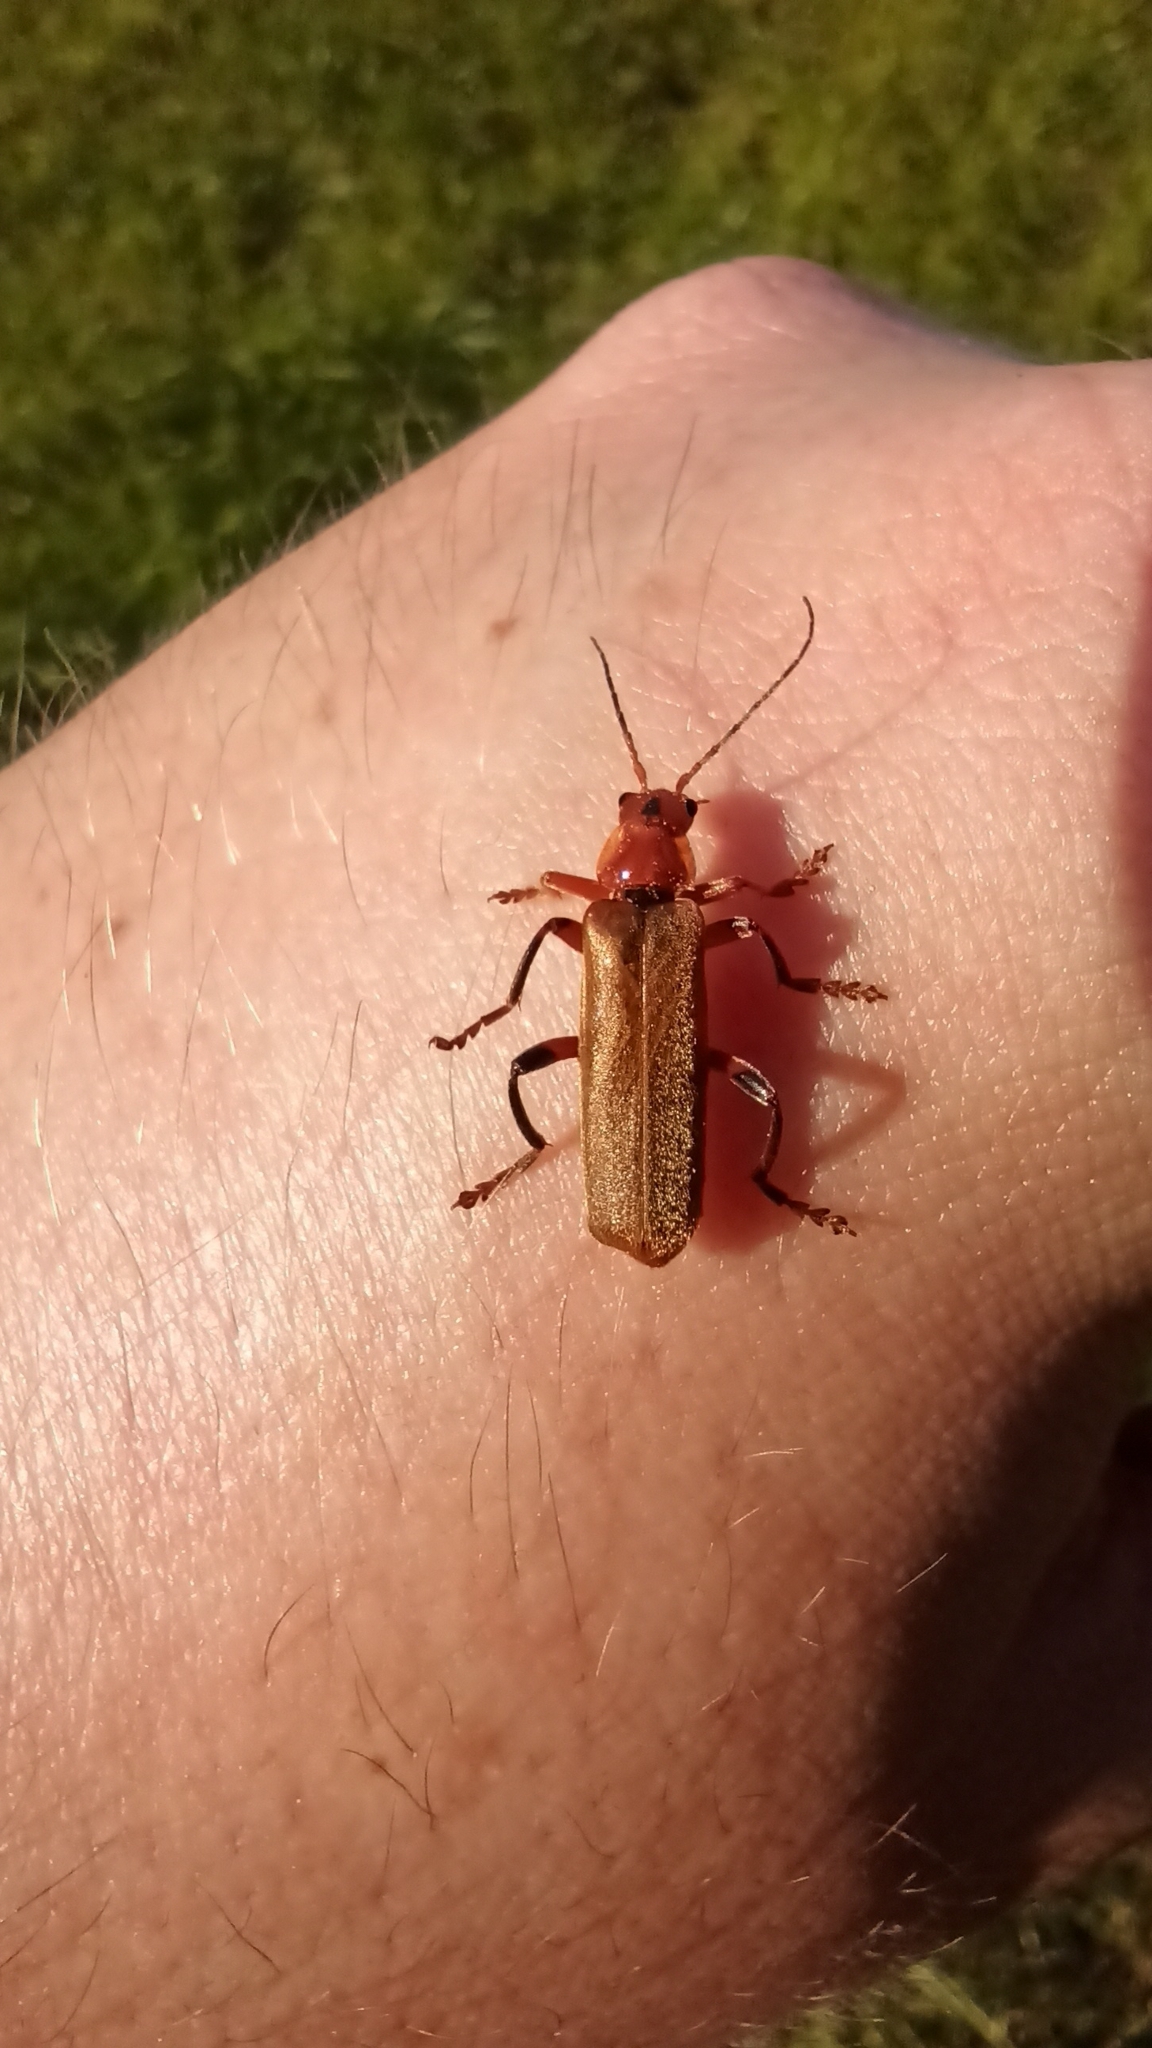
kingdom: Animalia
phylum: Arthropoda
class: Insecta
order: Coleoptera
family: Cantharidae
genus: Cantharis
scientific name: Cantharis livida
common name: Livid soldier beetle
